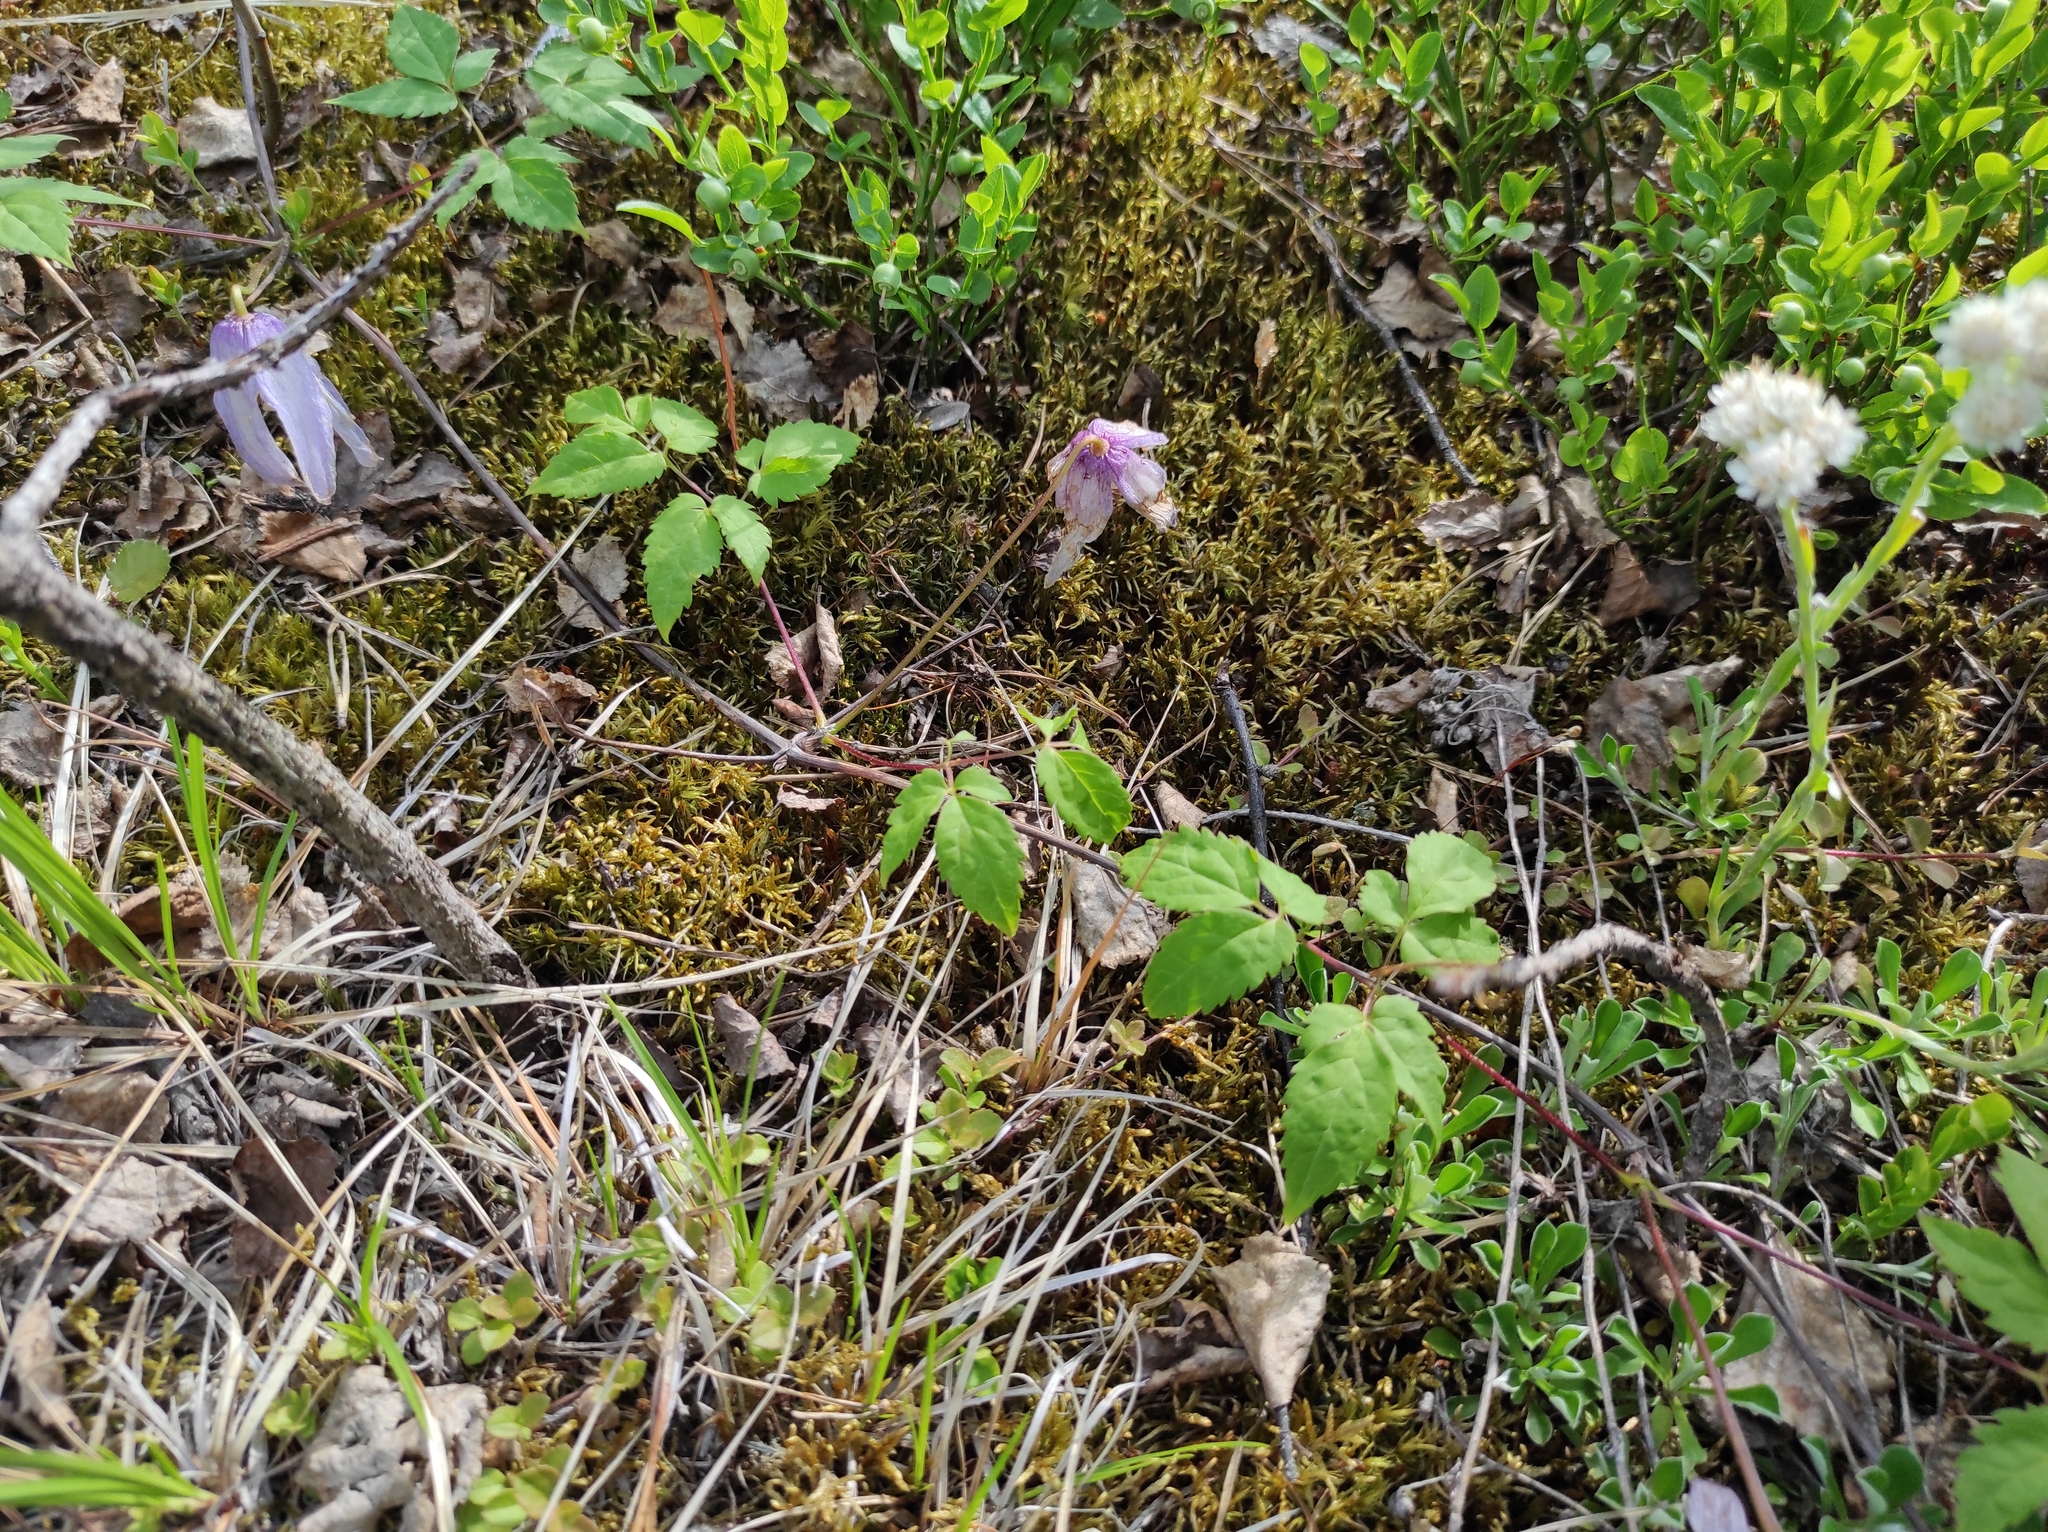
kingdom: Plantae
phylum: Tracheophyta
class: Magnoliopsida
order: Ranunculales
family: Ranunculaceae
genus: Clematis
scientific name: Clematis ochotensis
